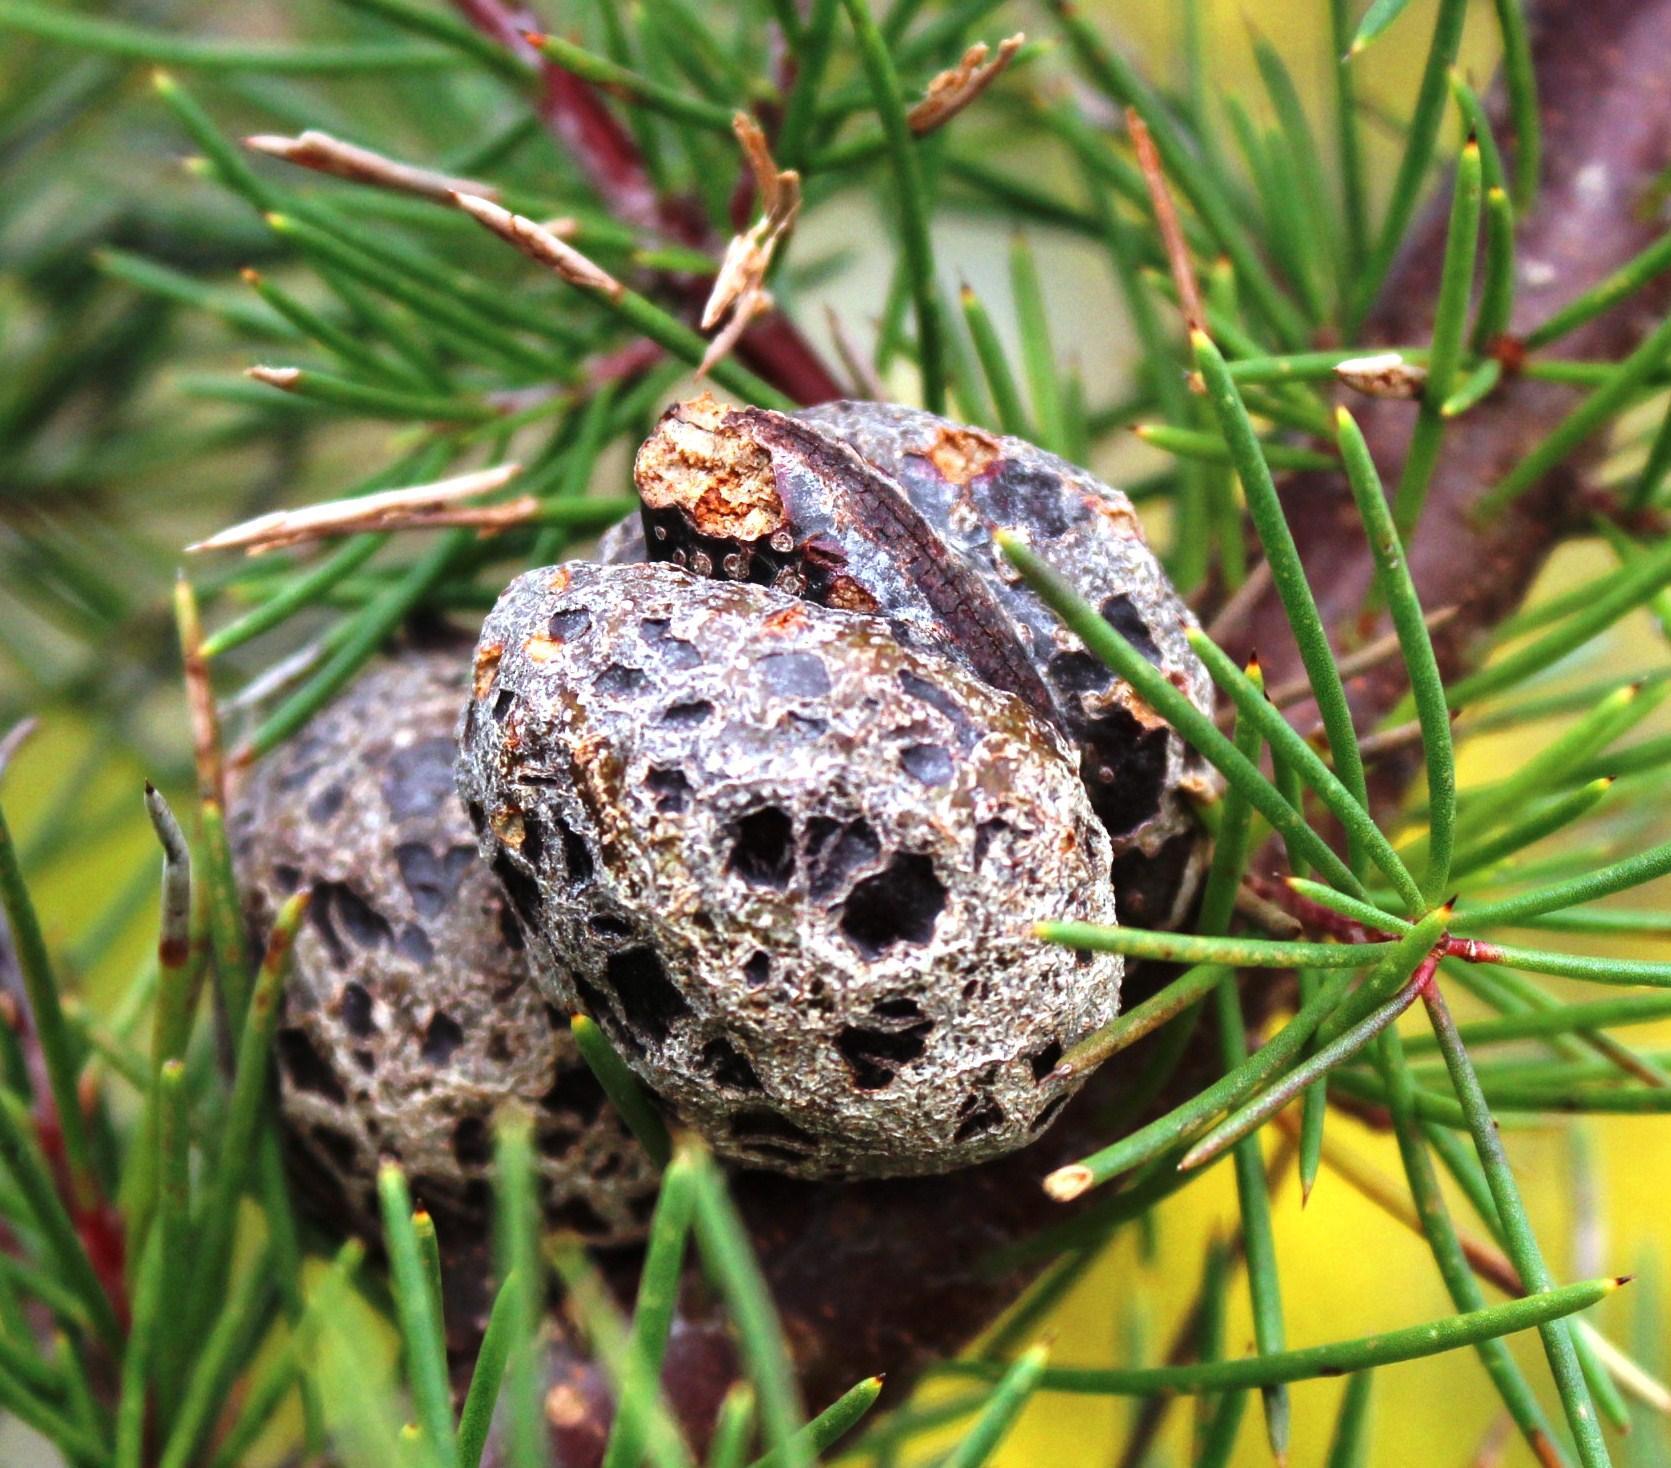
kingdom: Plantae
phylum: Tracheophyta
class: Magnoliopsida
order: Proteales
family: Proteaceae
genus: Hakea
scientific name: Hakea sericea
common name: Needle bush
